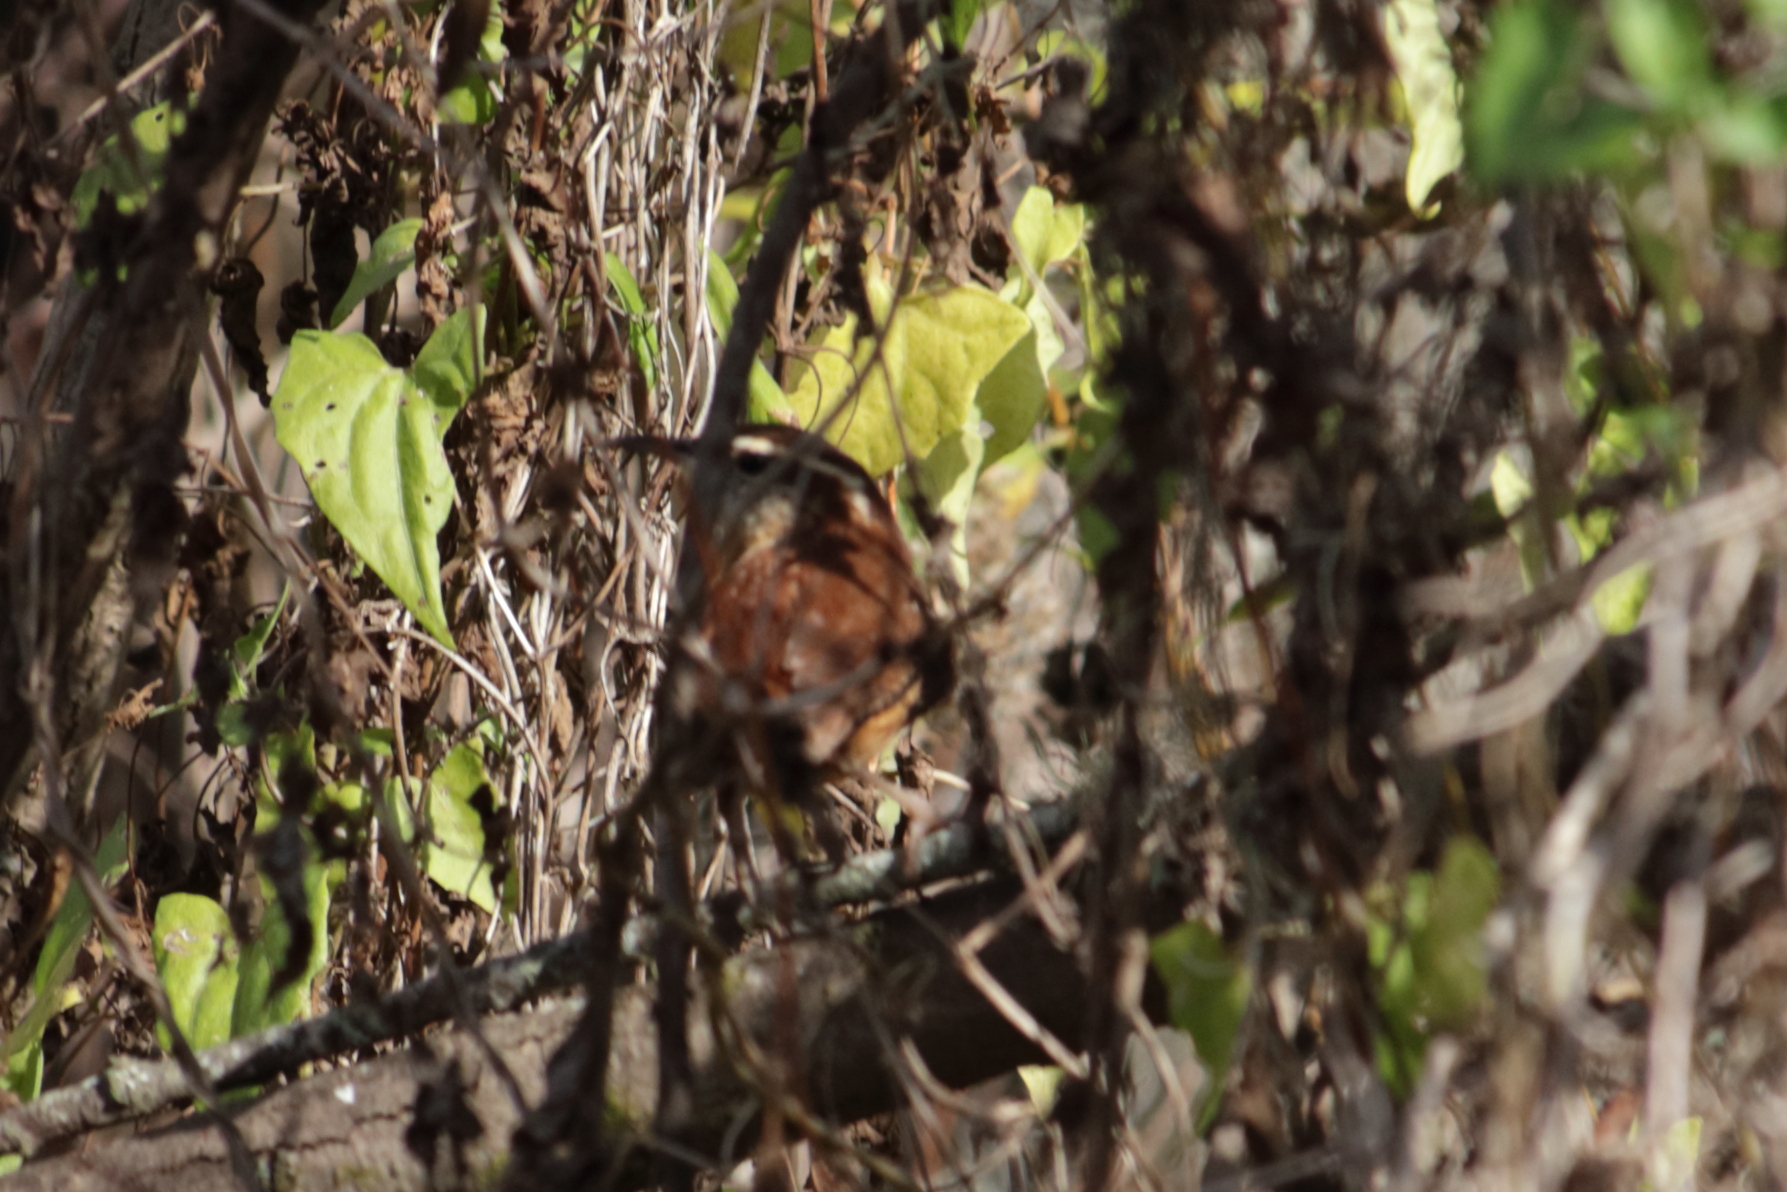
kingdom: Animalia
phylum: Chordata
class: Aves
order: Passeriformes
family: Troglodytidae
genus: Thryothorus
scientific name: Thryothorus ludovicianus
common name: Carolina wren
